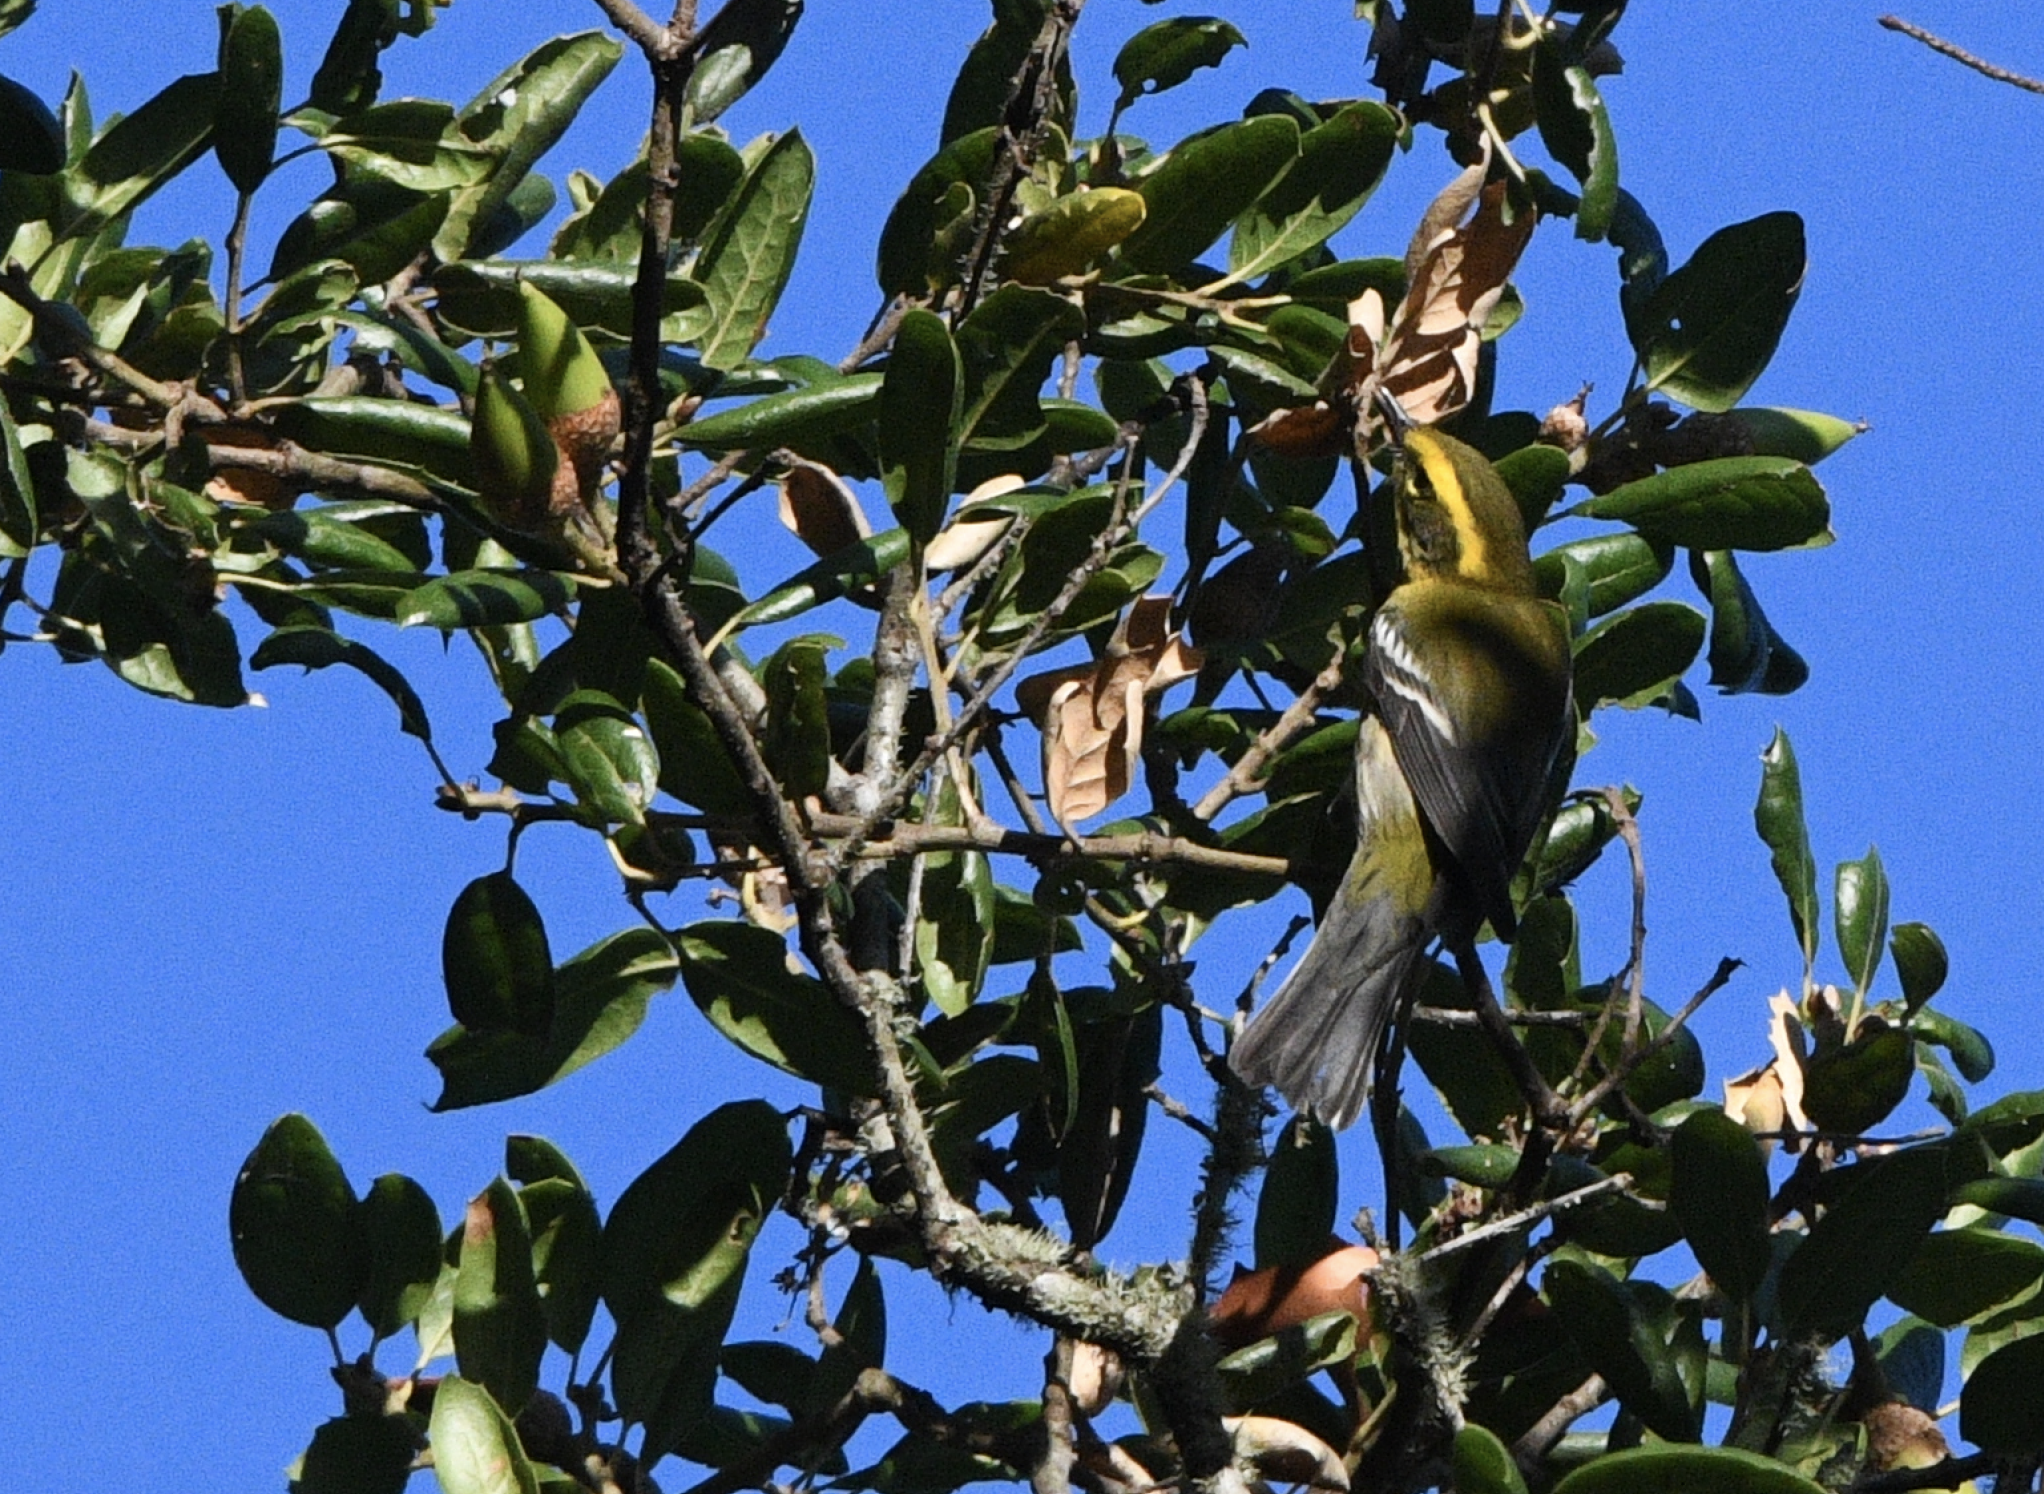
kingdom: Animalia
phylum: Chordata
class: Aves
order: Passeriformes
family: Parulidae
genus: Setophaga
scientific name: Setophaga townsendi
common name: Townsend's warbler
